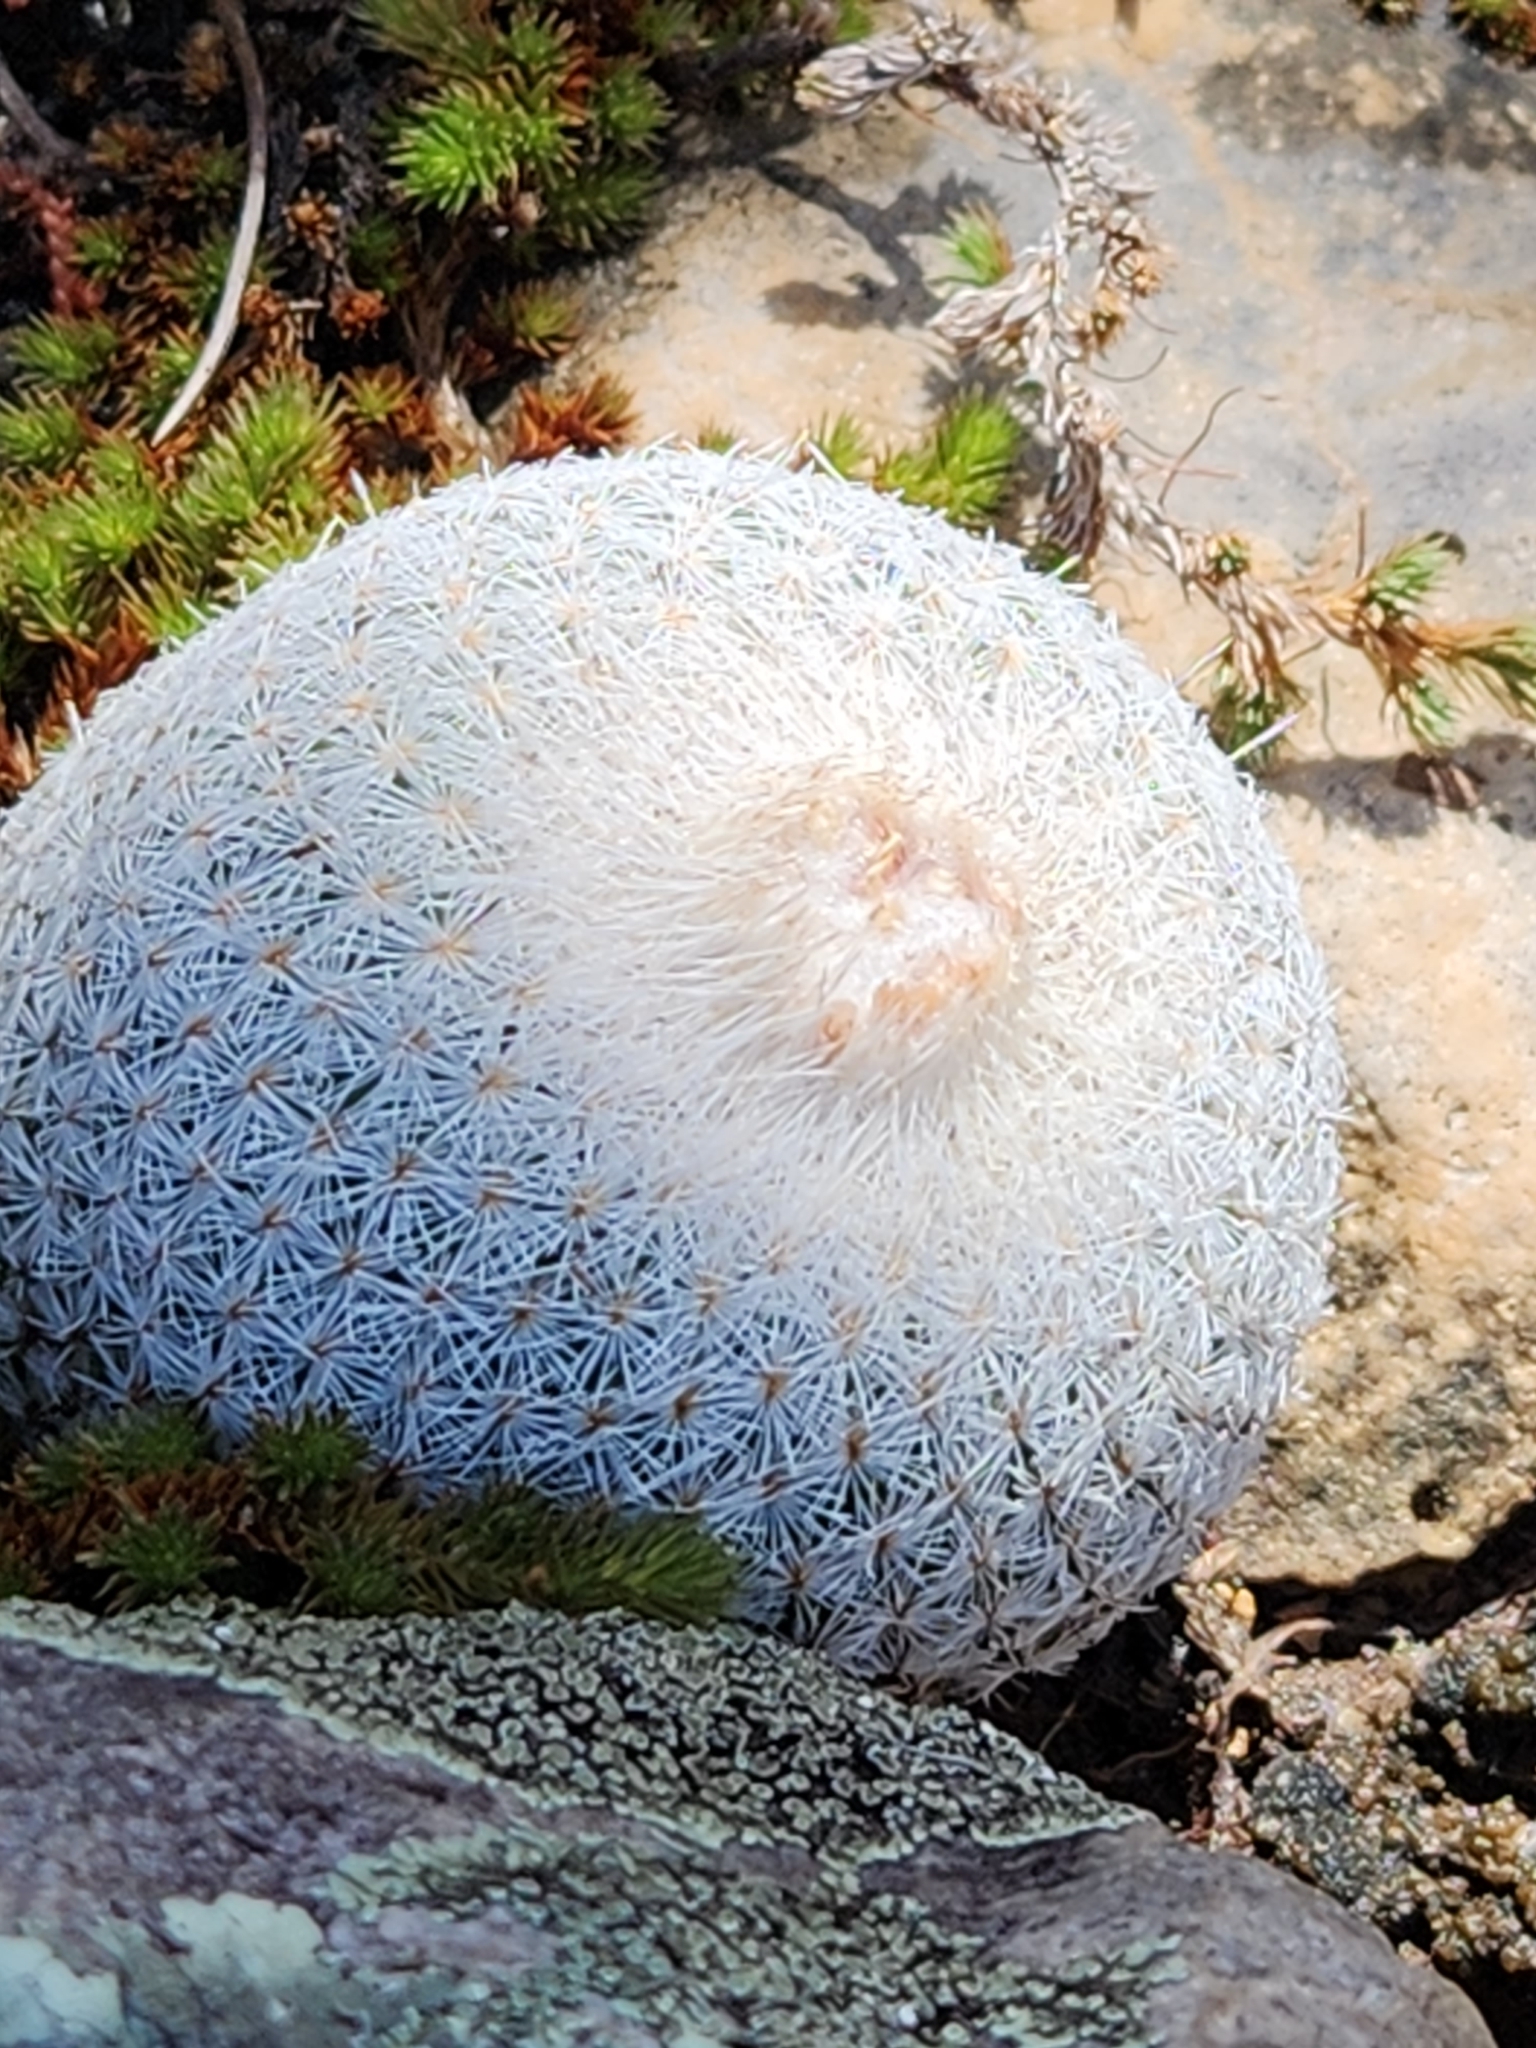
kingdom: Plantae
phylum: Tracheophyta
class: Magnoliopsida
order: Caryophyllales
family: Cactaceae
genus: Epithelantha
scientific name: Epithelantha micromeris
